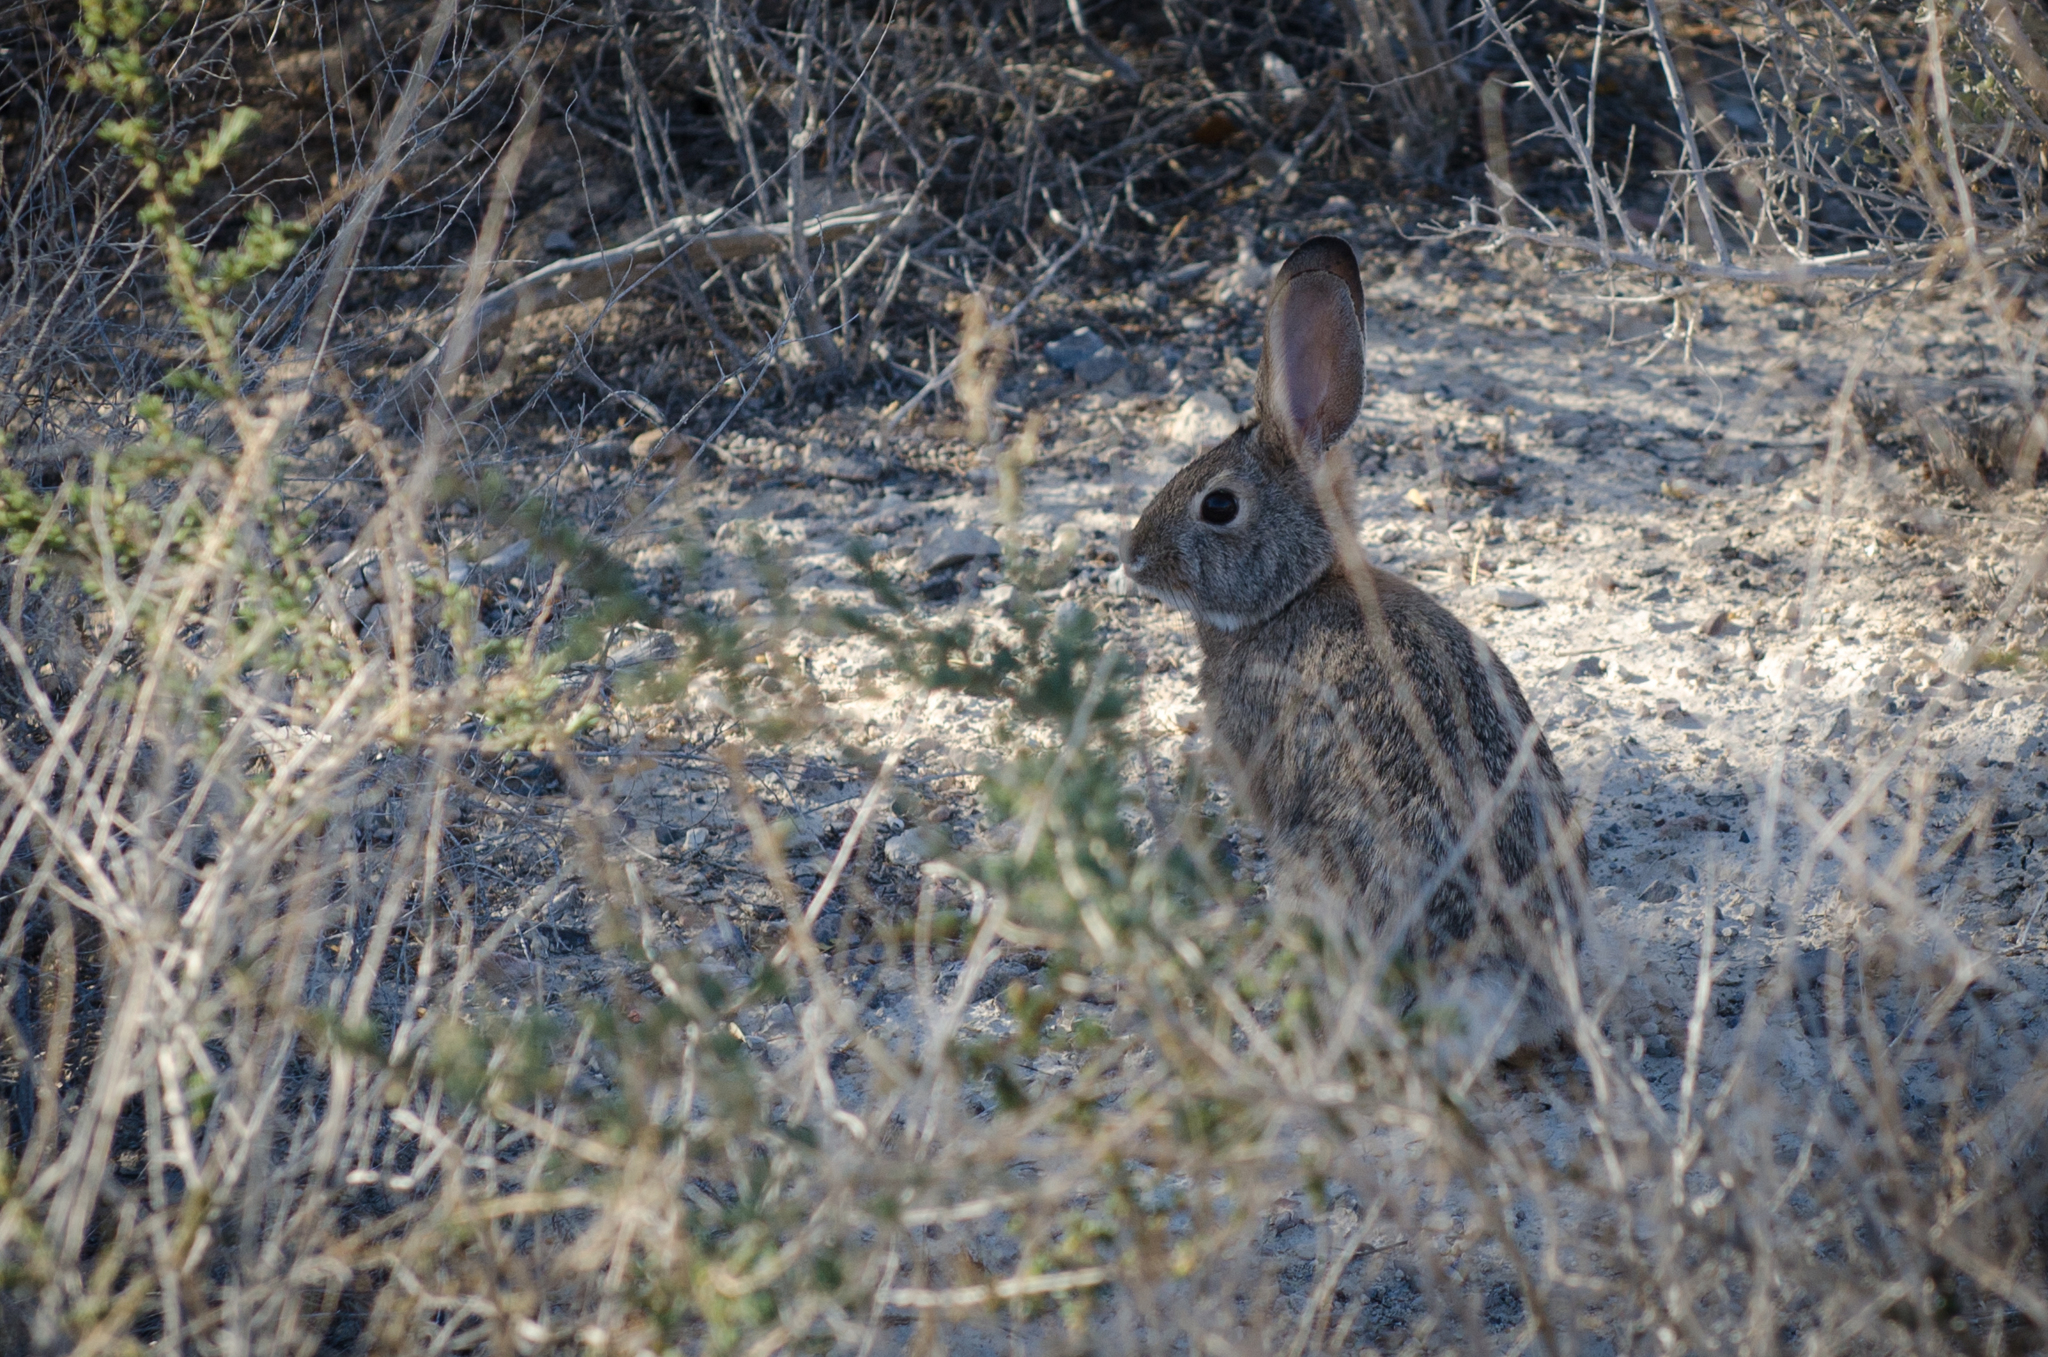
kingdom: Animalia
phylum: Chordata
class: Mammalia
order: Lagomorpha
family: Leporidae
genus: Sylvilagus
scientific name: Sylvilagus audubonii
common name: Desert cottontail
